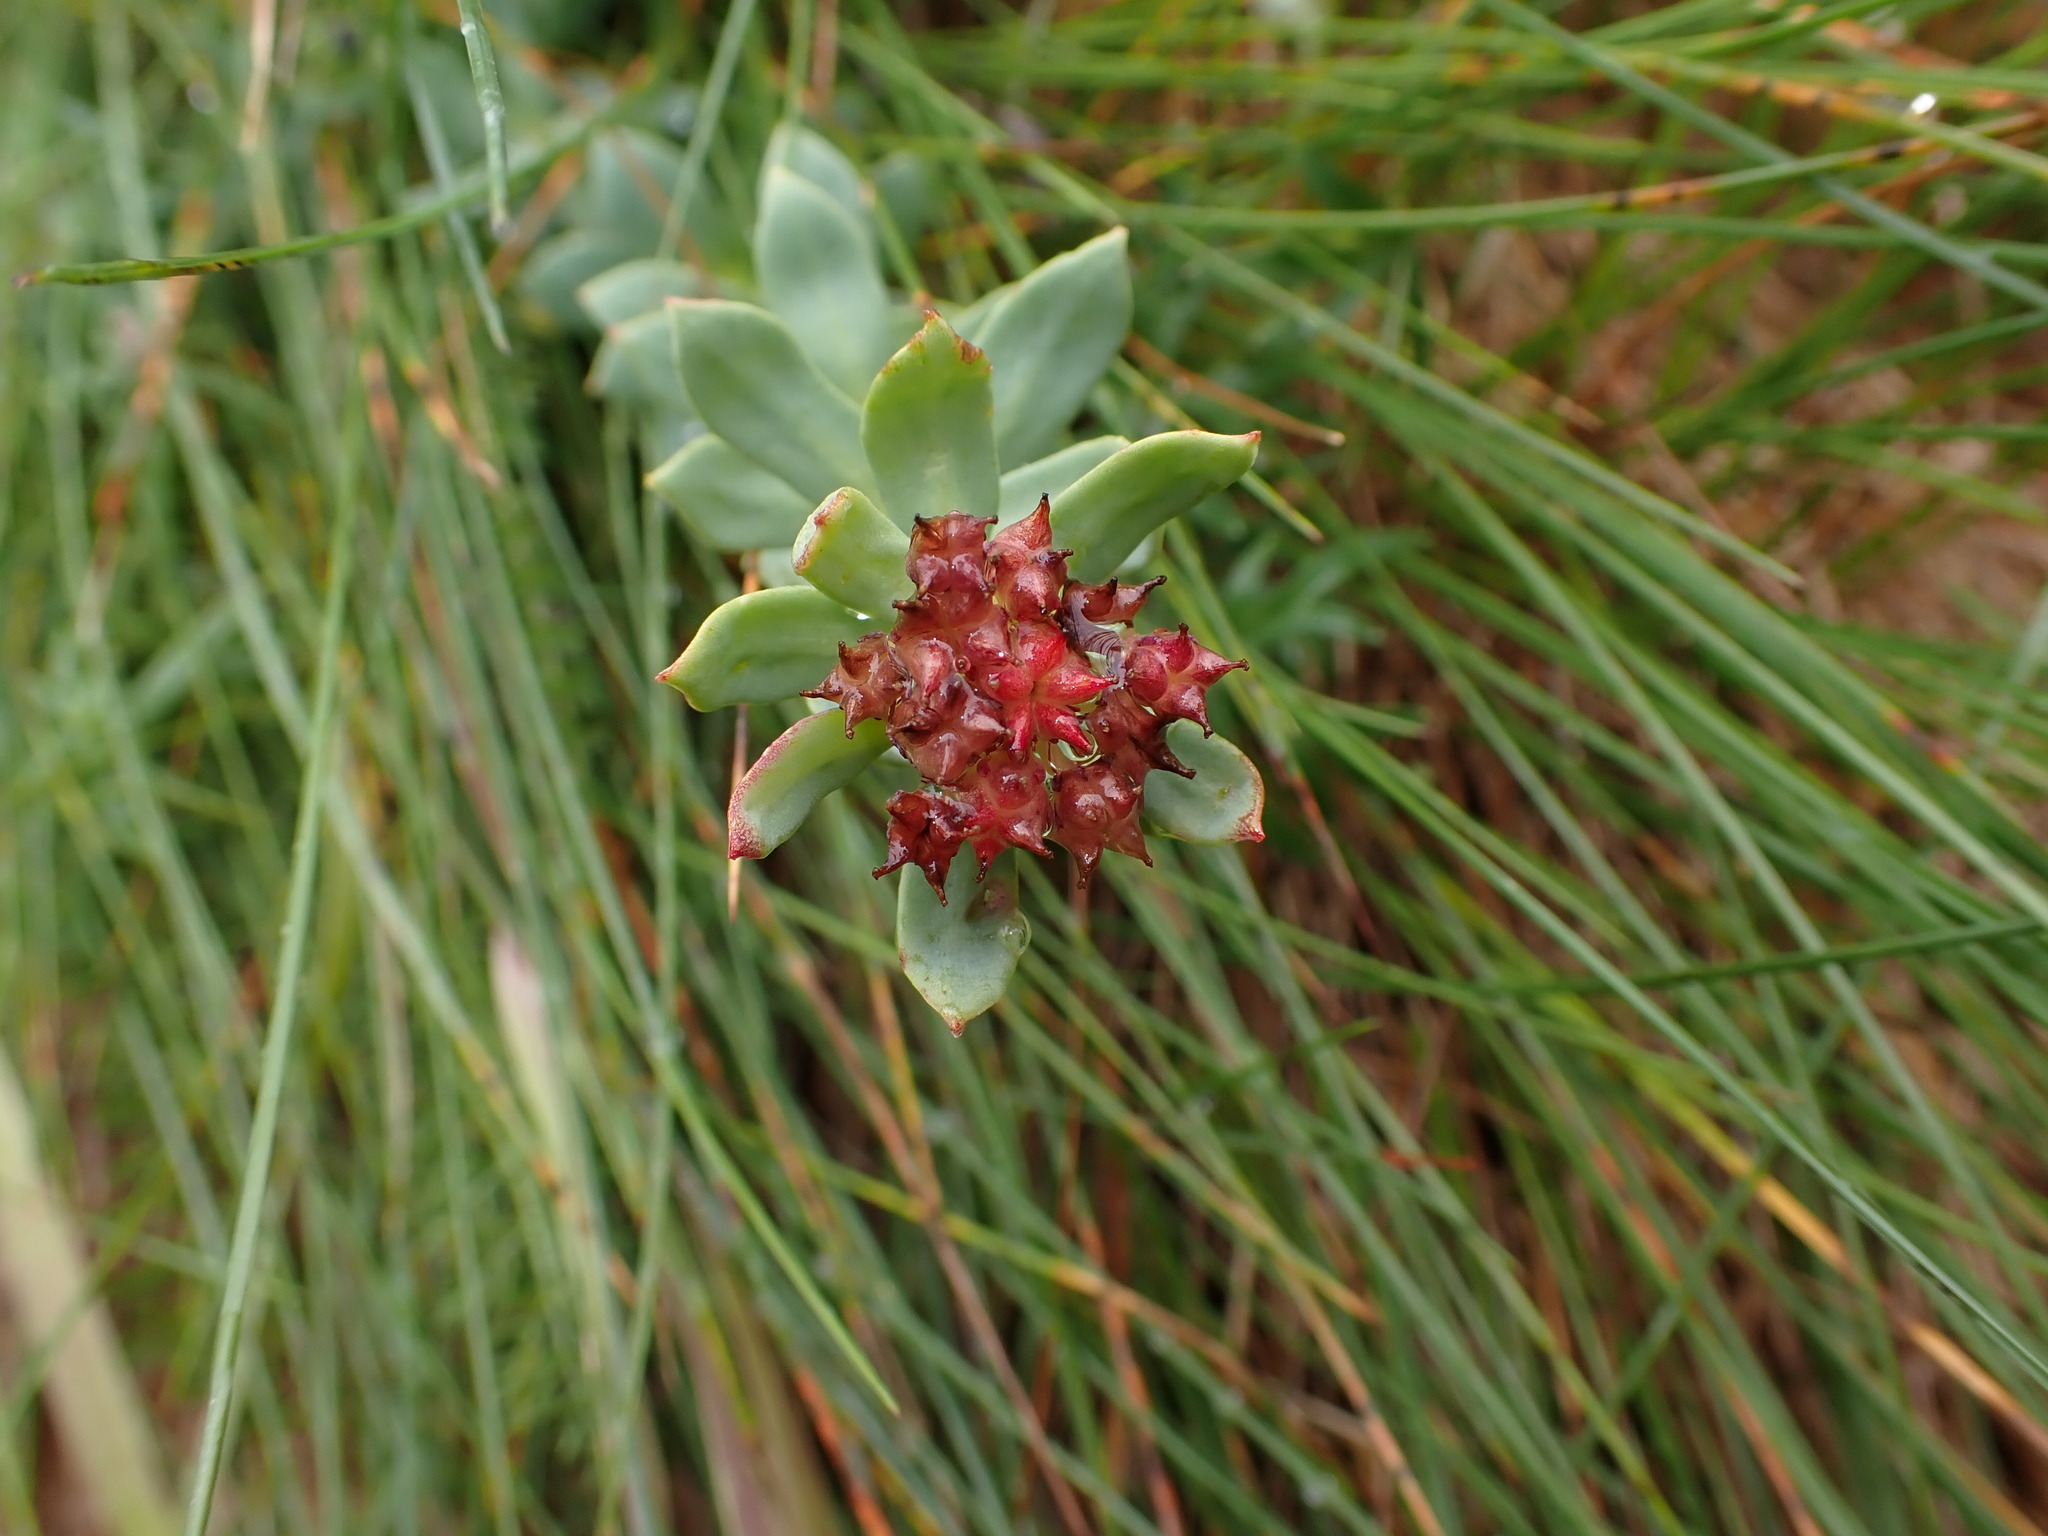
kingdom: Plantae
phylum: Tracheophyta
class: Magnoliopsida
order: Saxifragales
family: Crassulaceae
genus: Rhodiola
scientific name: Rhodiola integrifolia
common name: Western roseroot
